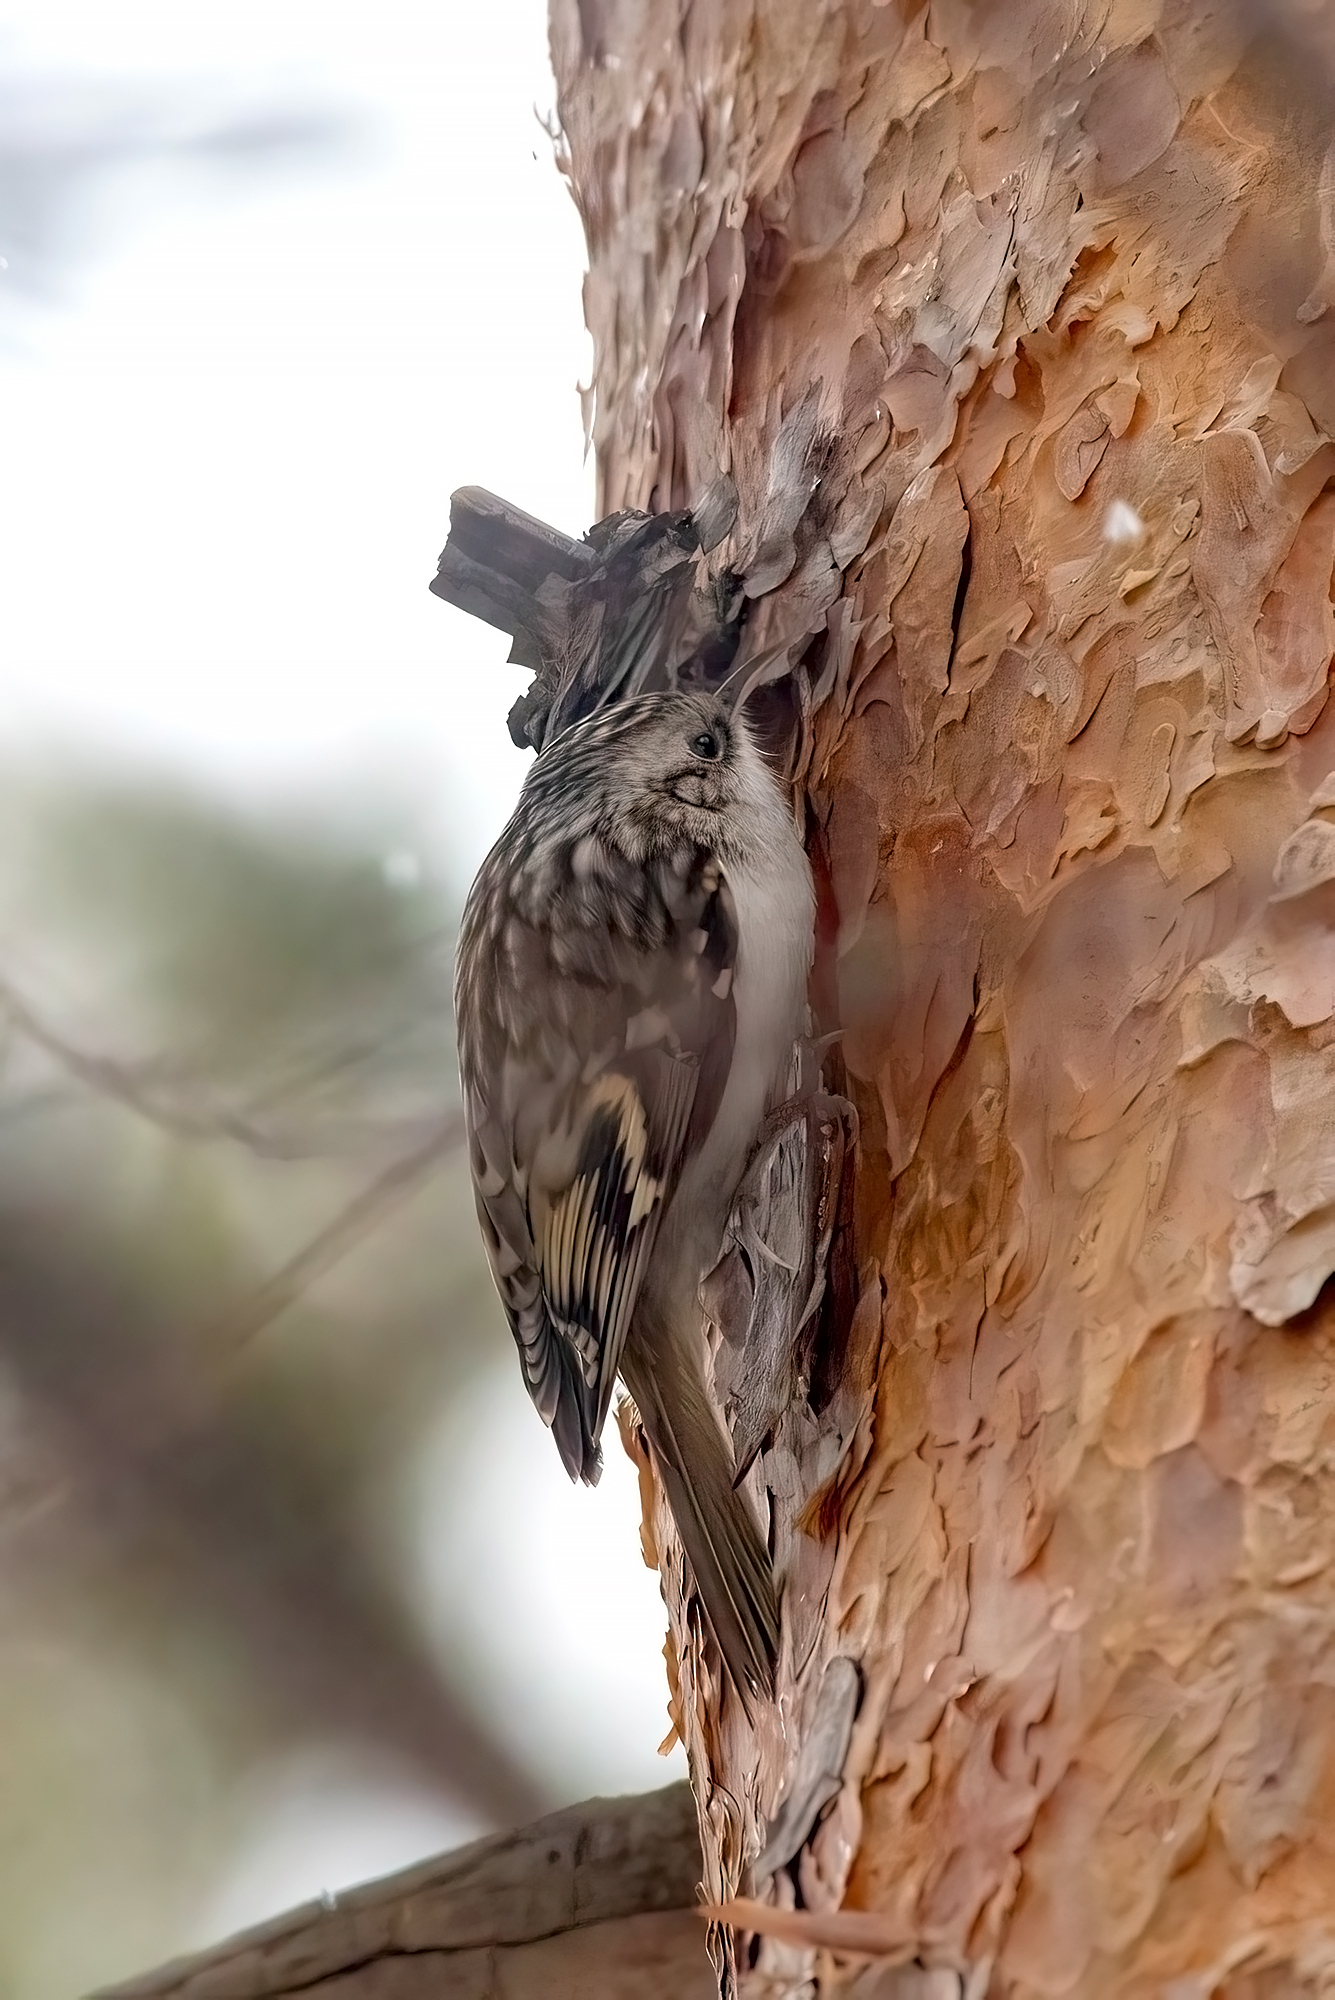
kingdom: Animalia
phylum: Chordata
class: Aves
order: Passeriformes
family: Certhiidae
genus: Certhia
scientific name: Certhia familiaris
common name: Eurasian treecreeper
